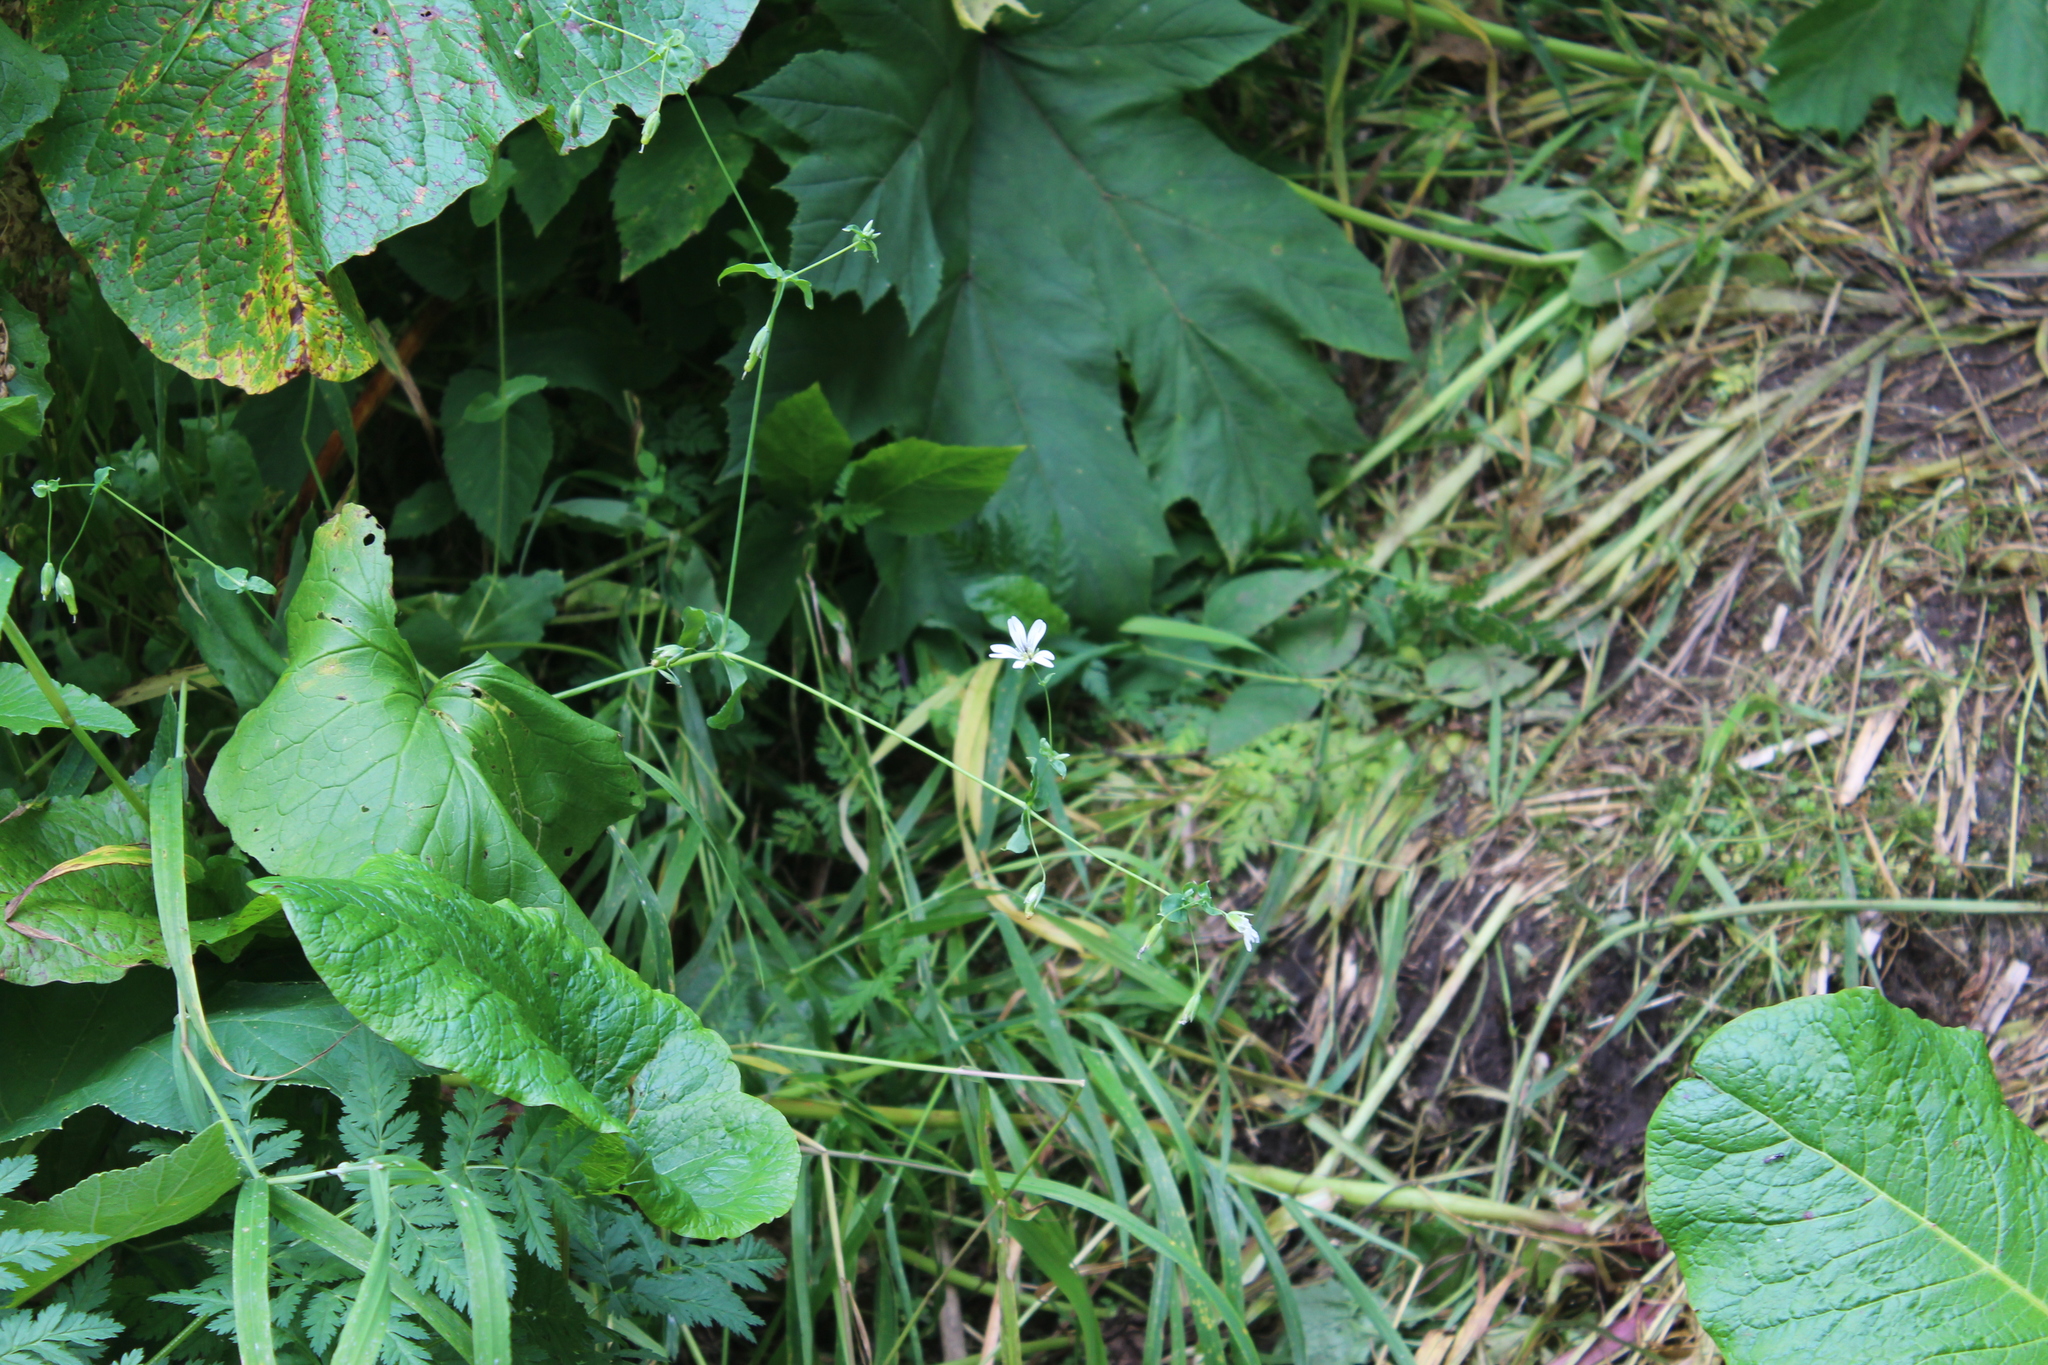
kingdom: Plantae
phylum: Tracheophyta
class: Magnoliopsida
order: Caryophyllales
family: Caryophyllaceae
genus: Cerastium
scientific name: Cerastium davuricum
